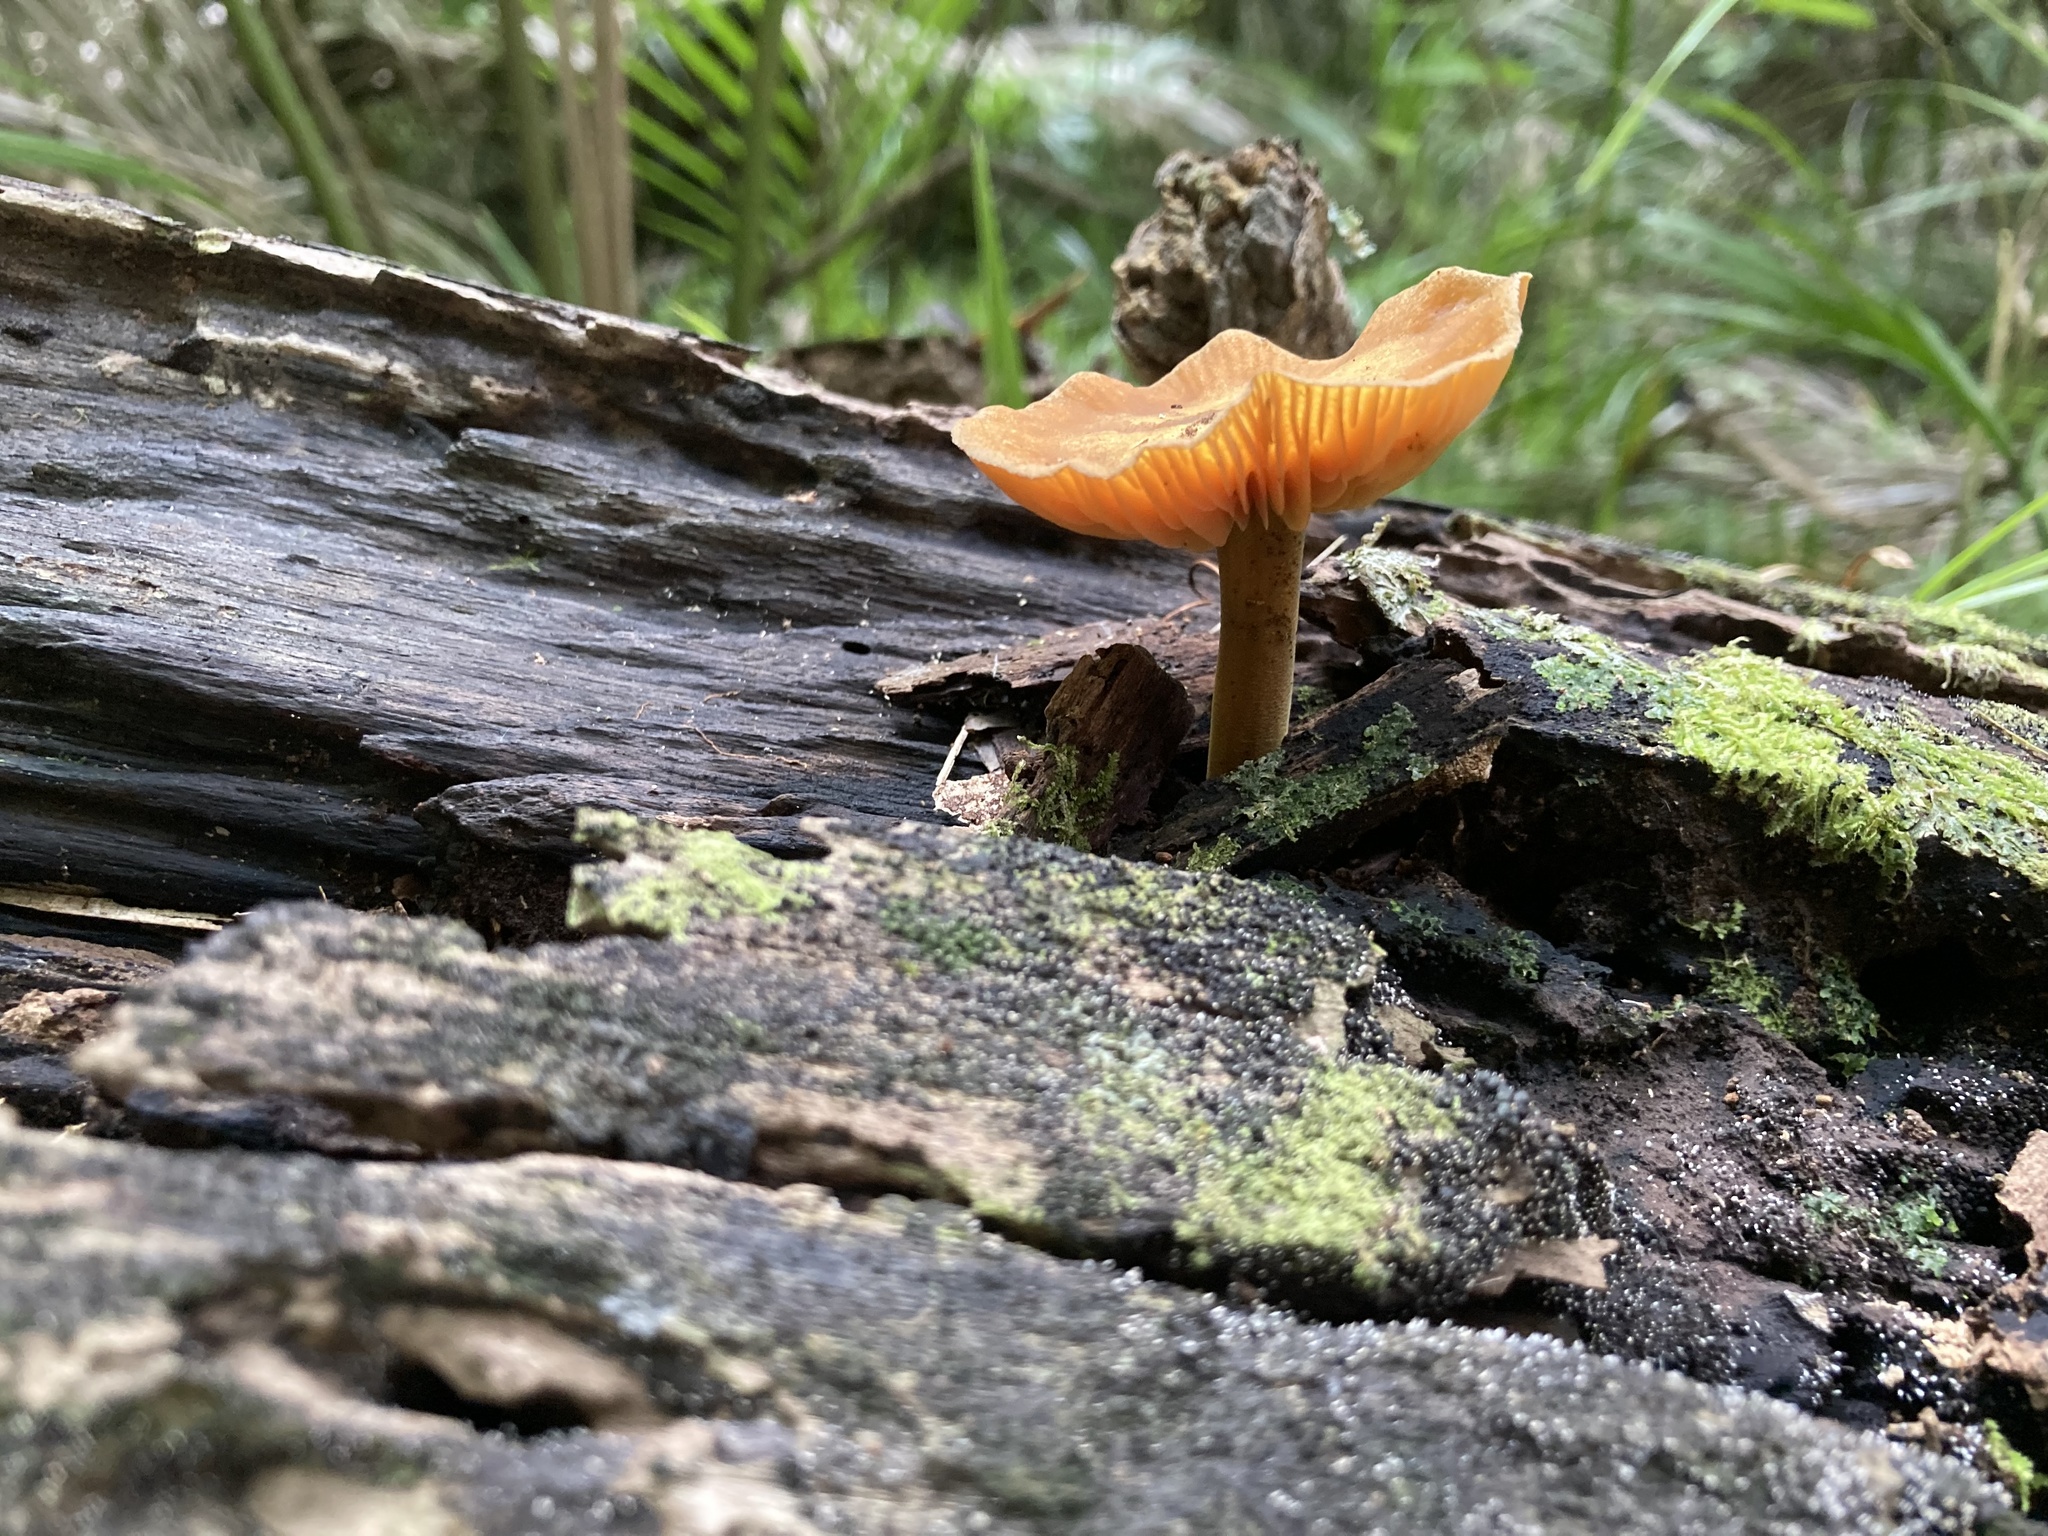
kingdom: Fungi
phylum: Basidiomycota
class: Agaricomycetes
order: Agaricales
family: Mycenaceae
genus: Heimiomyces
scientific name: Heimiomyces velutipes
